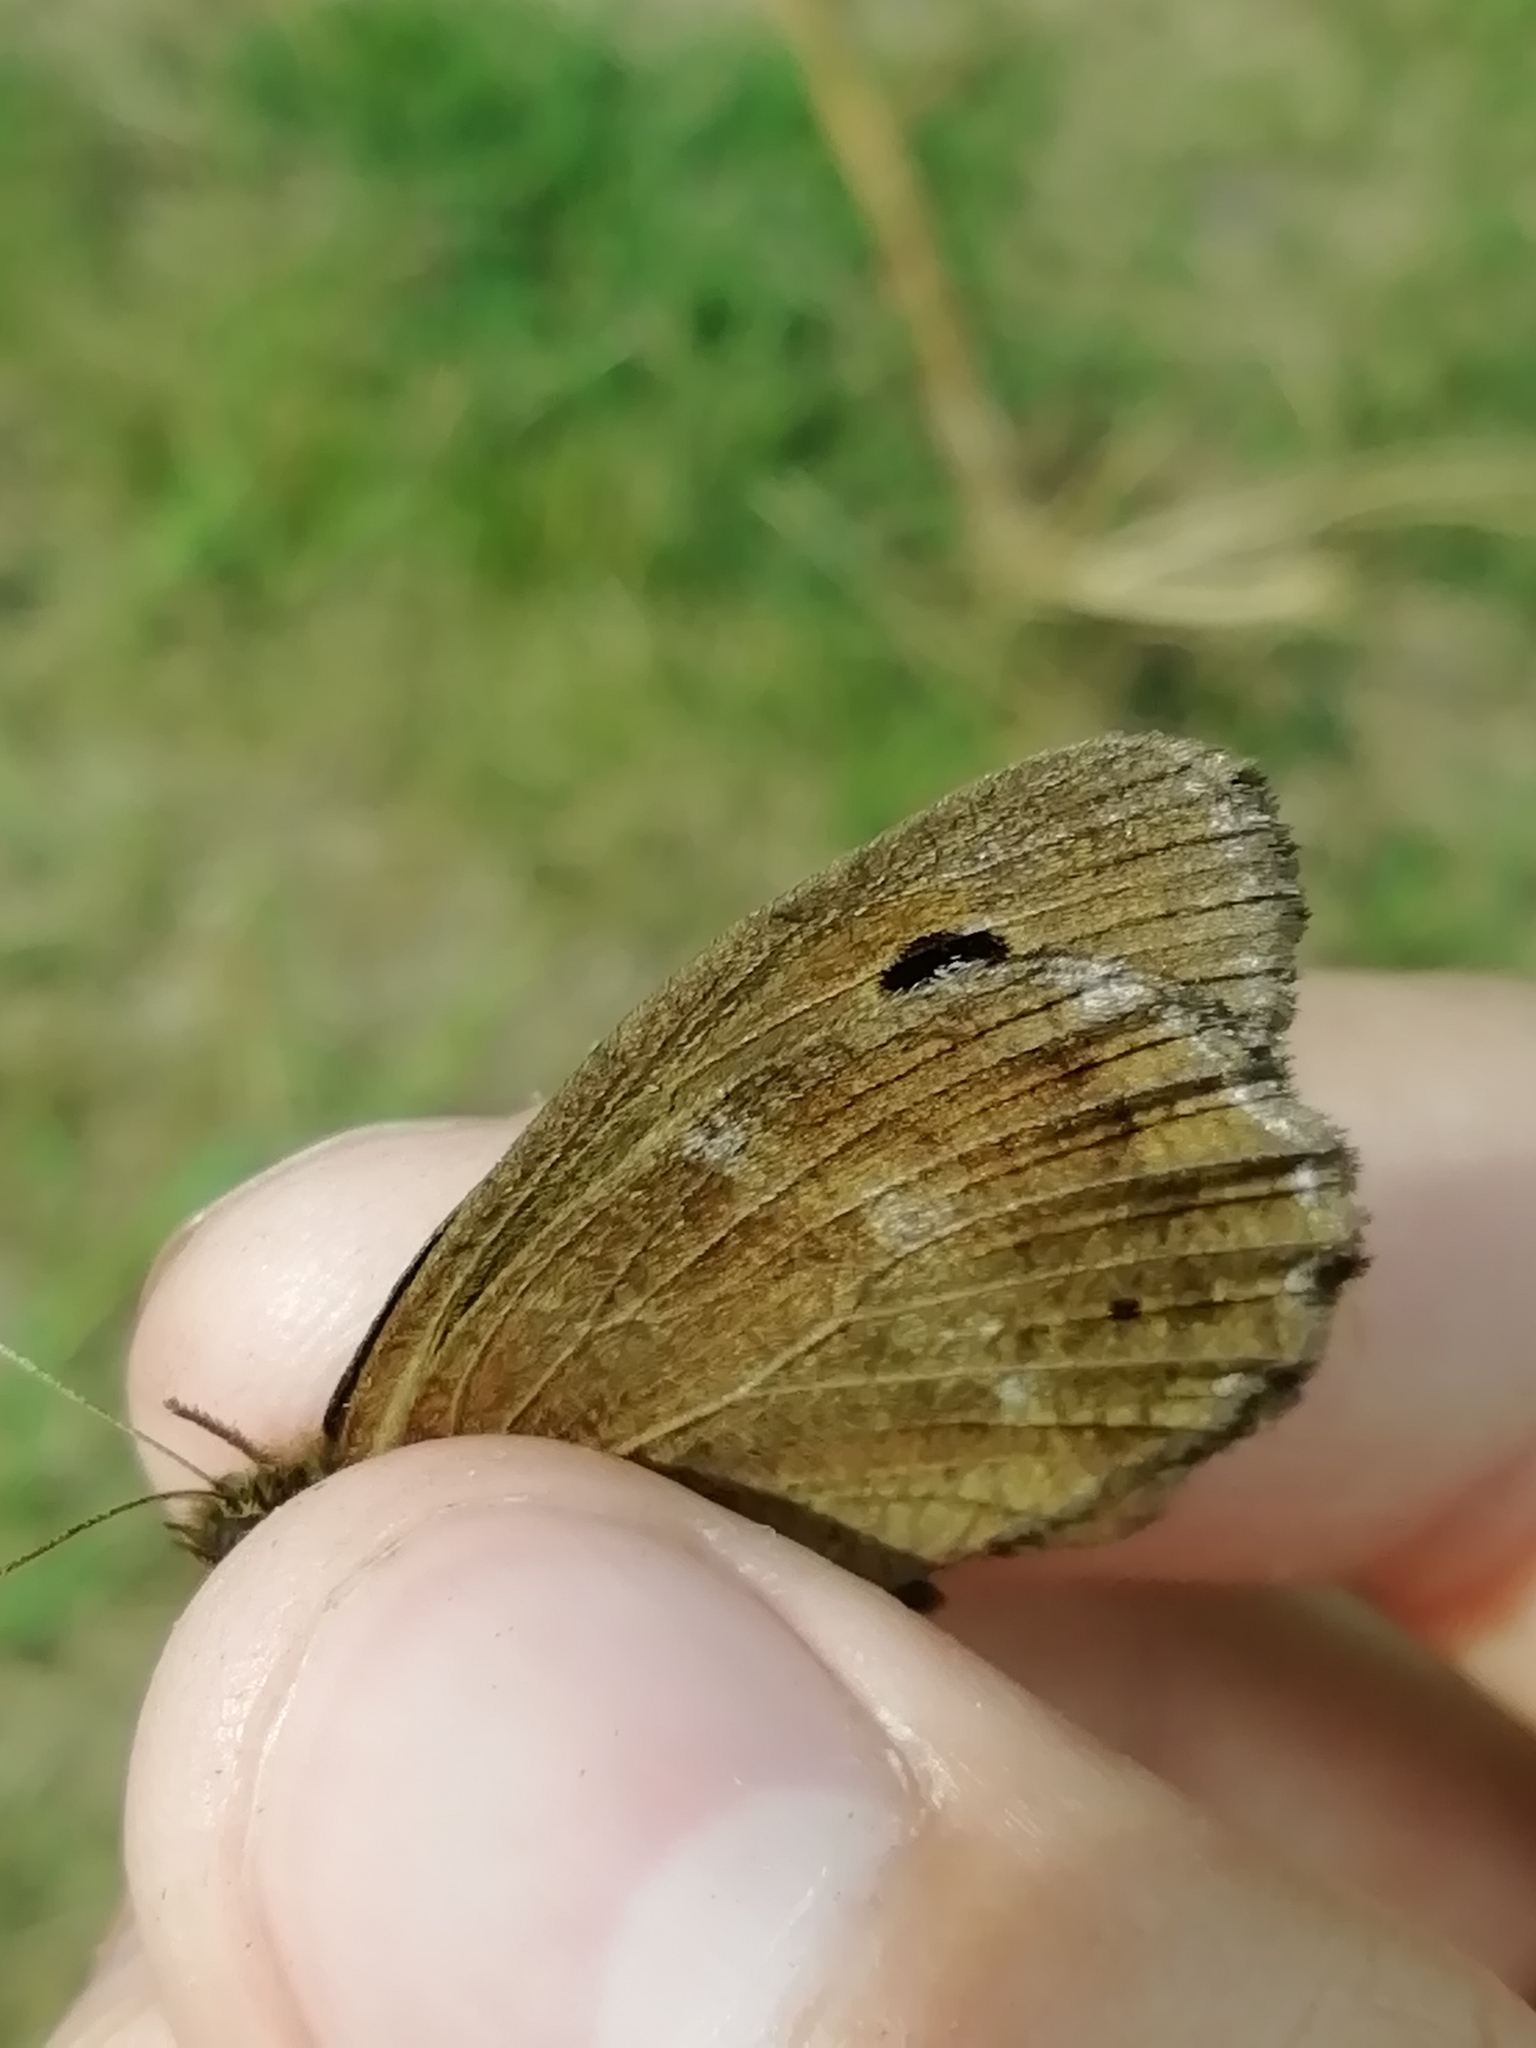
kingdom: Animalia
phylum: Arthropoda
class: Insecta
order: Lepidoptera
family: Nymphalidae
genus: Minois
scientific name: Minois dryas
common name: Dryad
